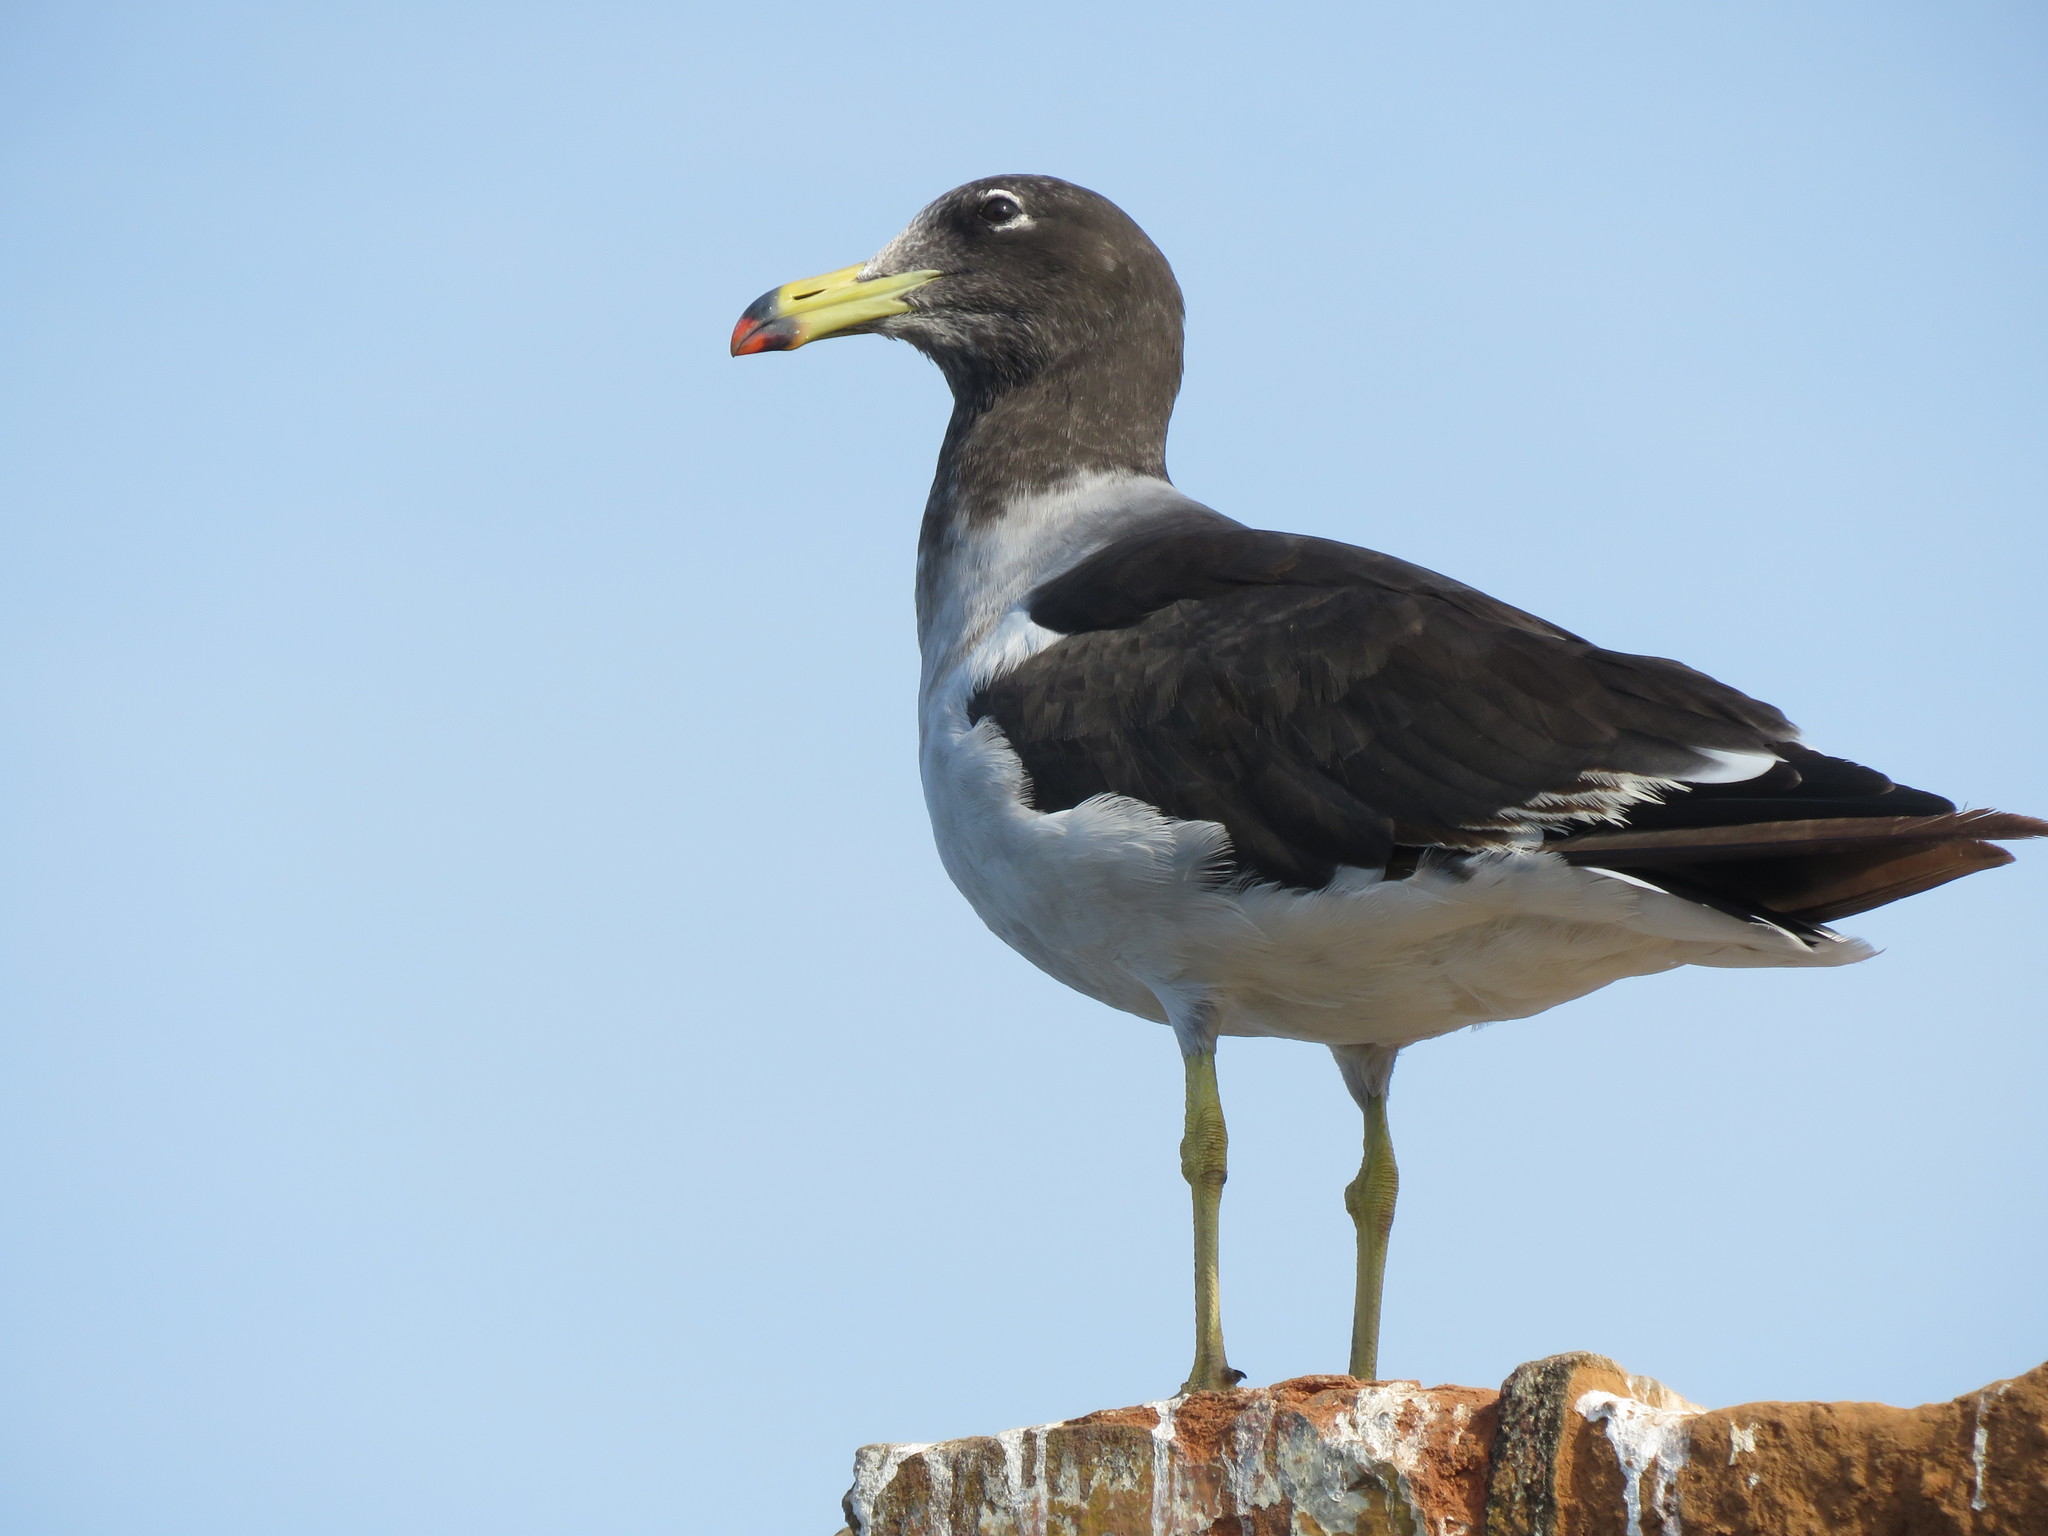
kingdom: Animalia
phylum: Chordata
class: Aves
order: Charadriiformes
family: Laridae
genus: Larus
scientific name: Larus belcheri
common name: Belcher's gull
